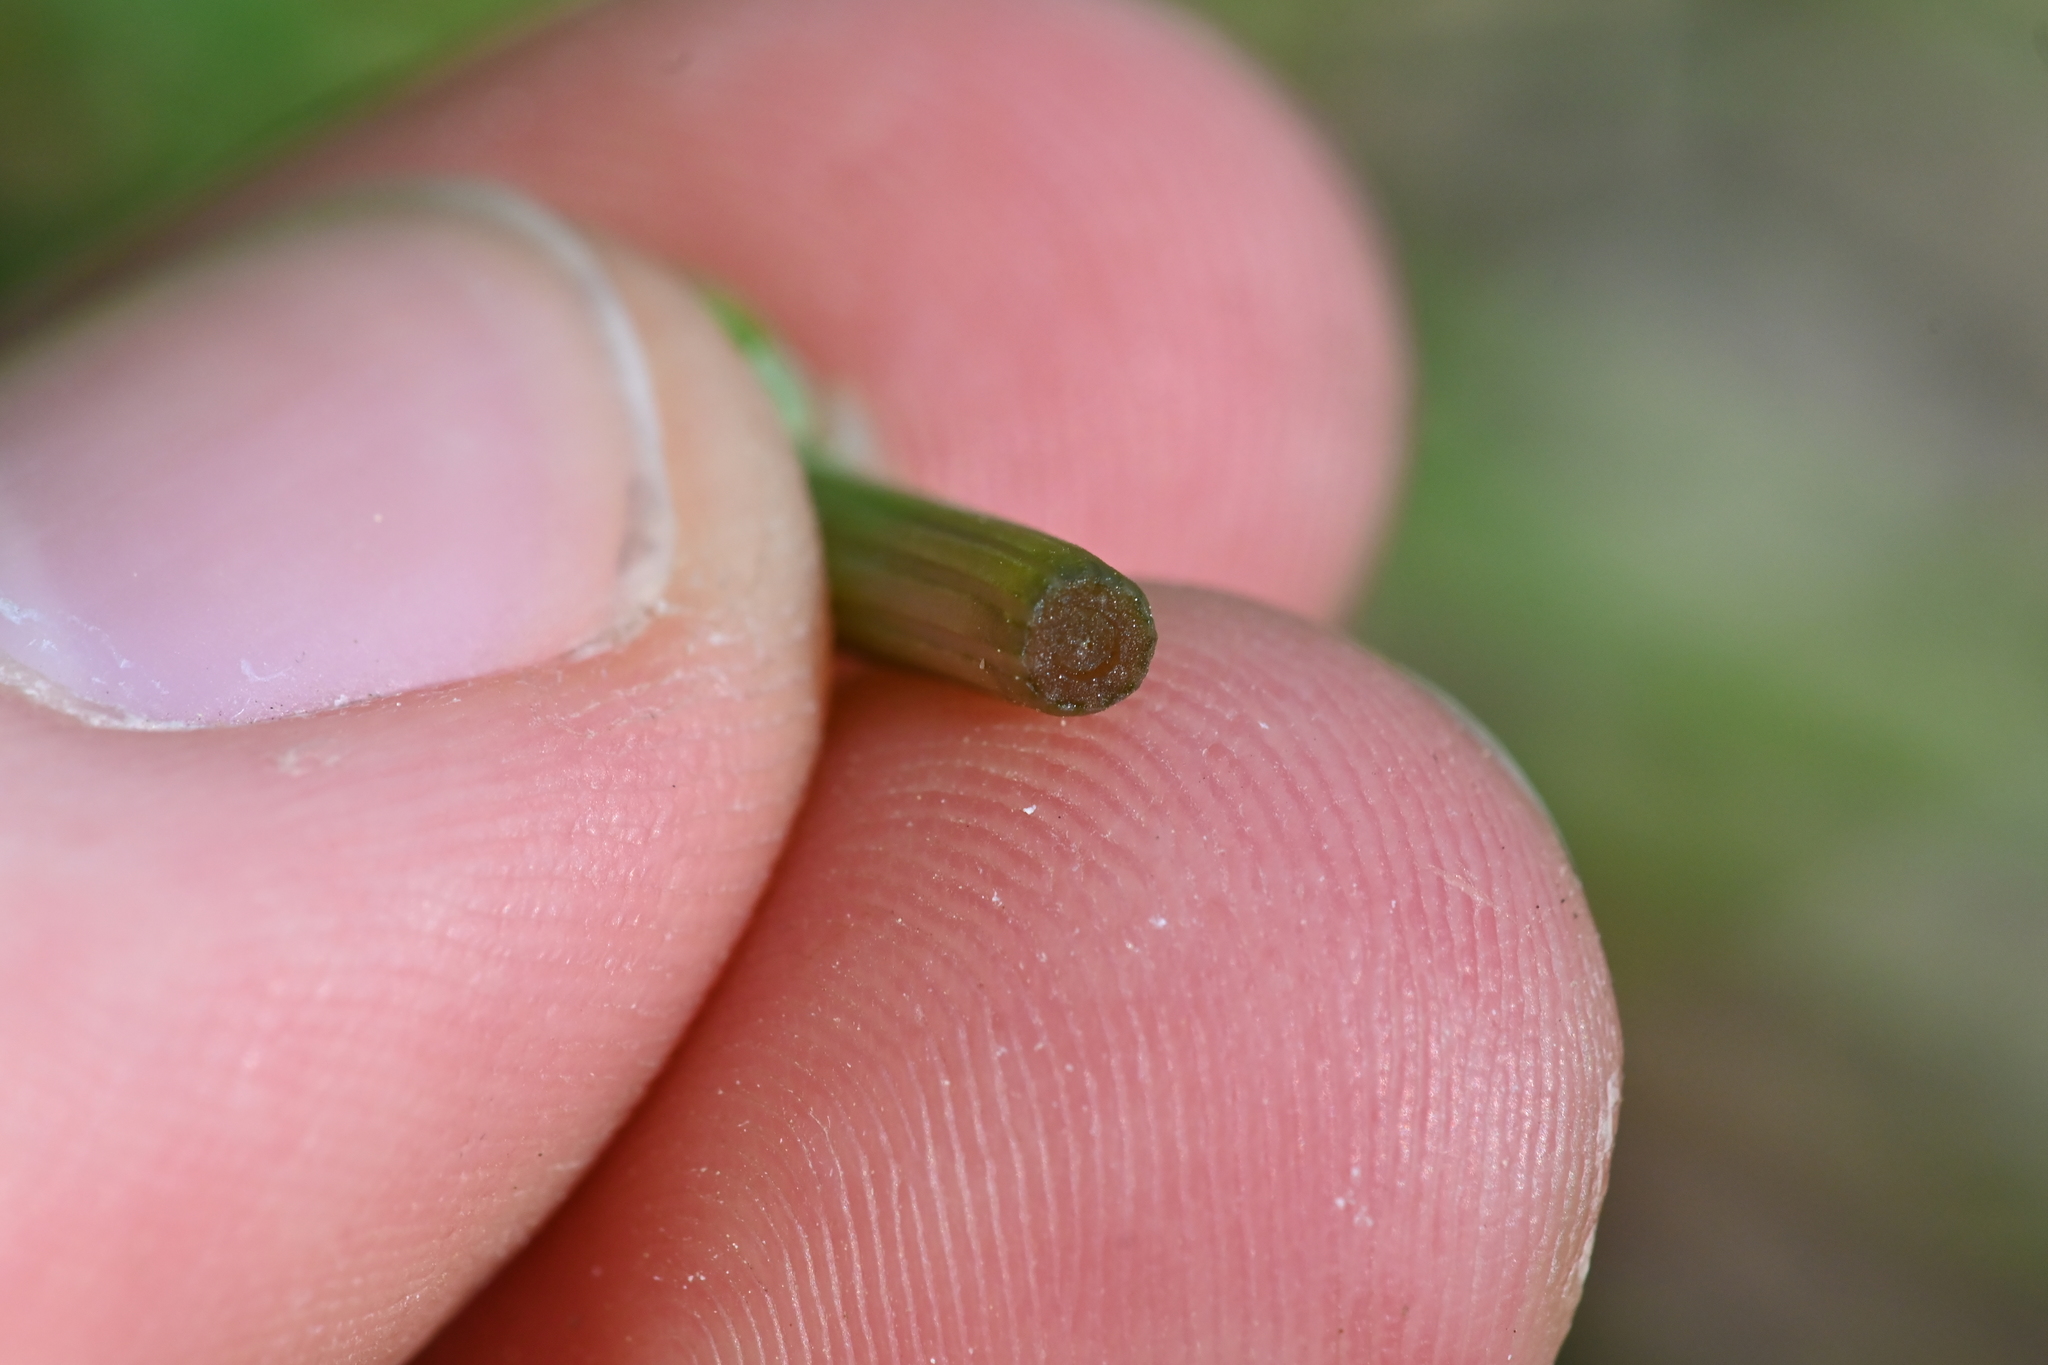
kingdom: Plantae
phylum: Tracheophyta
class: Polypodiopsida
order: Equisetales
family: Equisetaceae
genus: Equisetum
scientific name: Equisetum arvense
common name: Field horsetail
